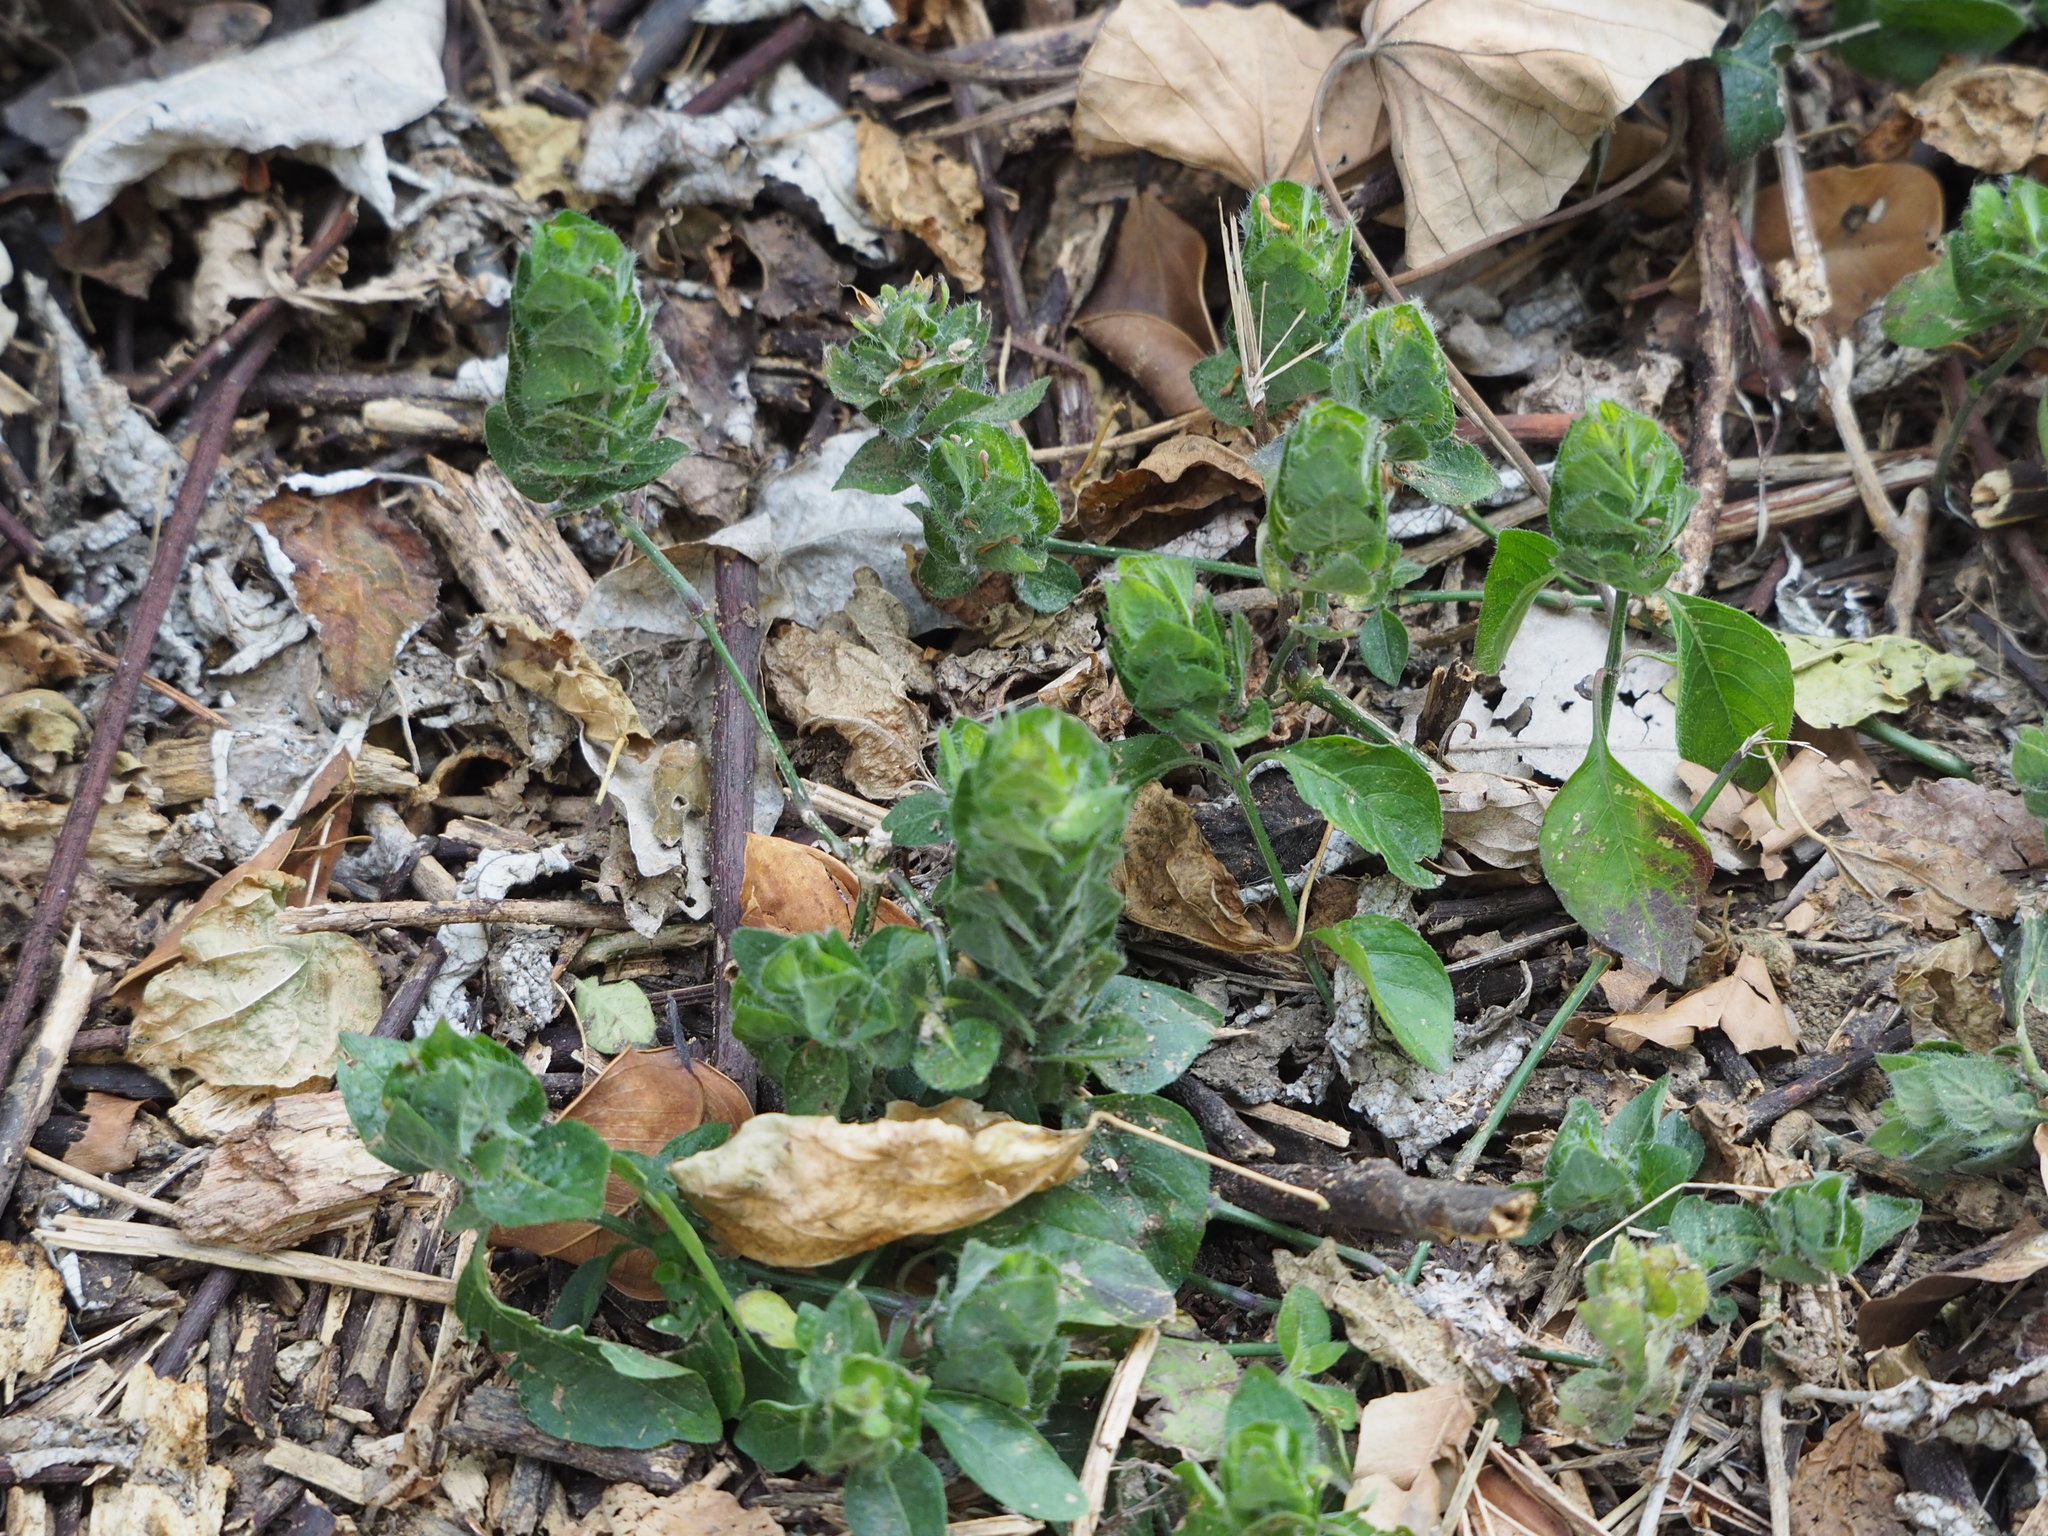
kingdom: Plantae
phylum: Tracheophyta
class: Magnoliopsida
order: Lamiales
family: Acanthaceae
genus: Ruellia
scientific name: Ruellia blechum
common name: Browne's blechum
